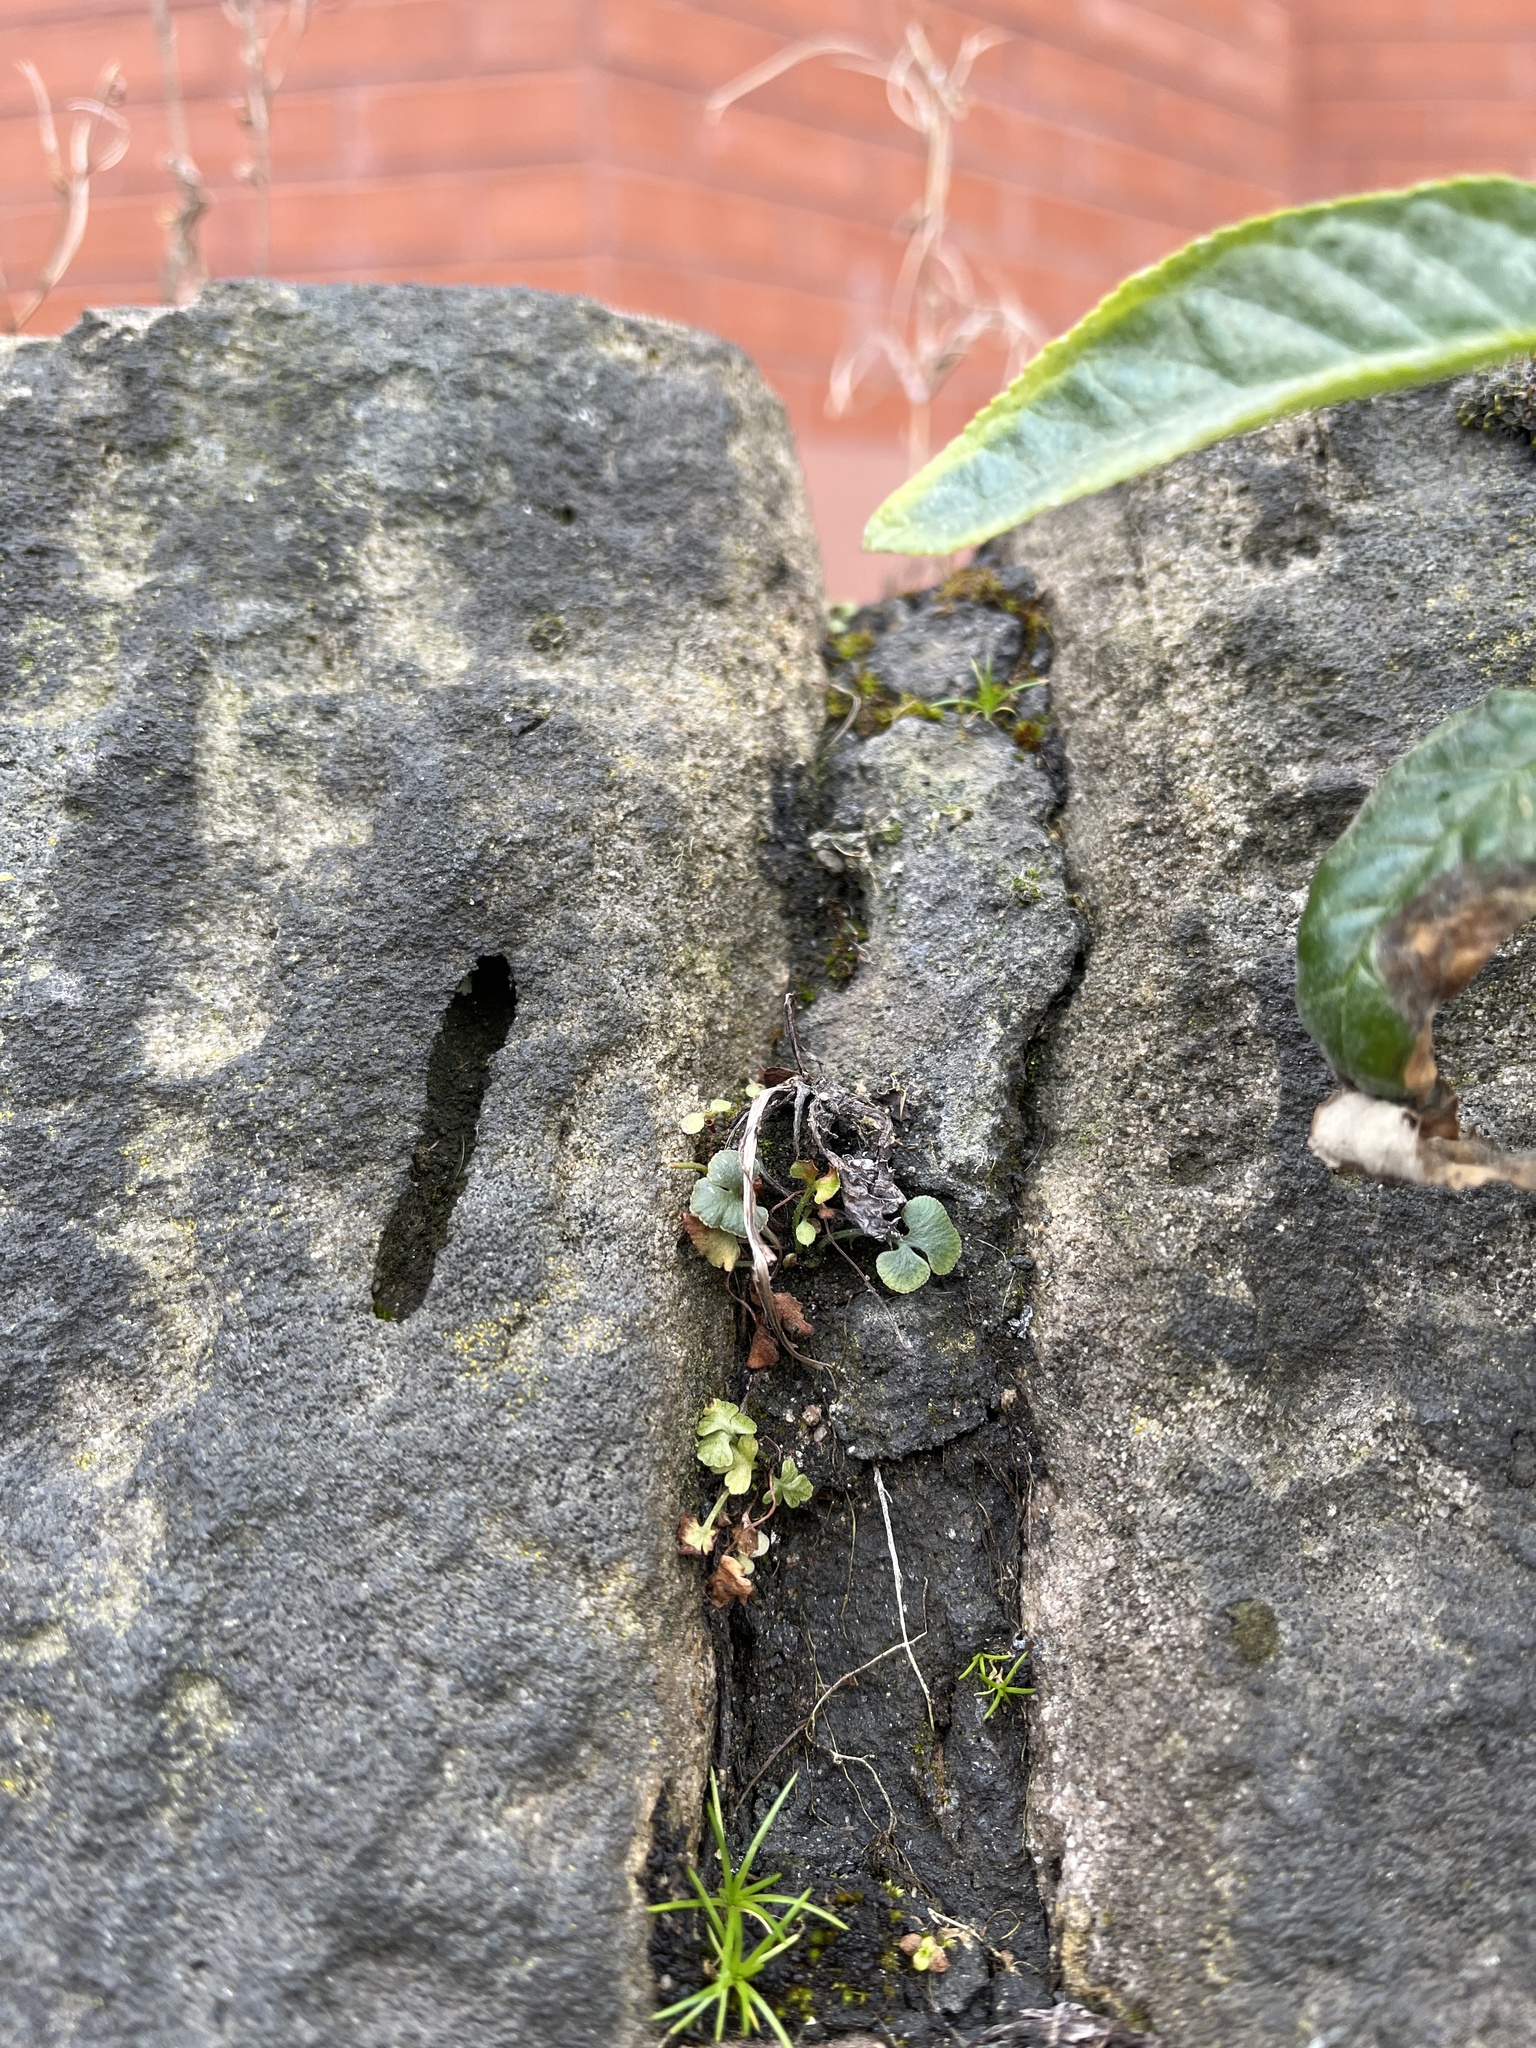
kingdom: Plantae
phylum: Tracheophyta
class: Polypodiopsida
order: Polypodiales
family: Aspleniaceae
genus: Asplenium
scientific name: Asplenium ruta-muraria
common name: Wall-rue
